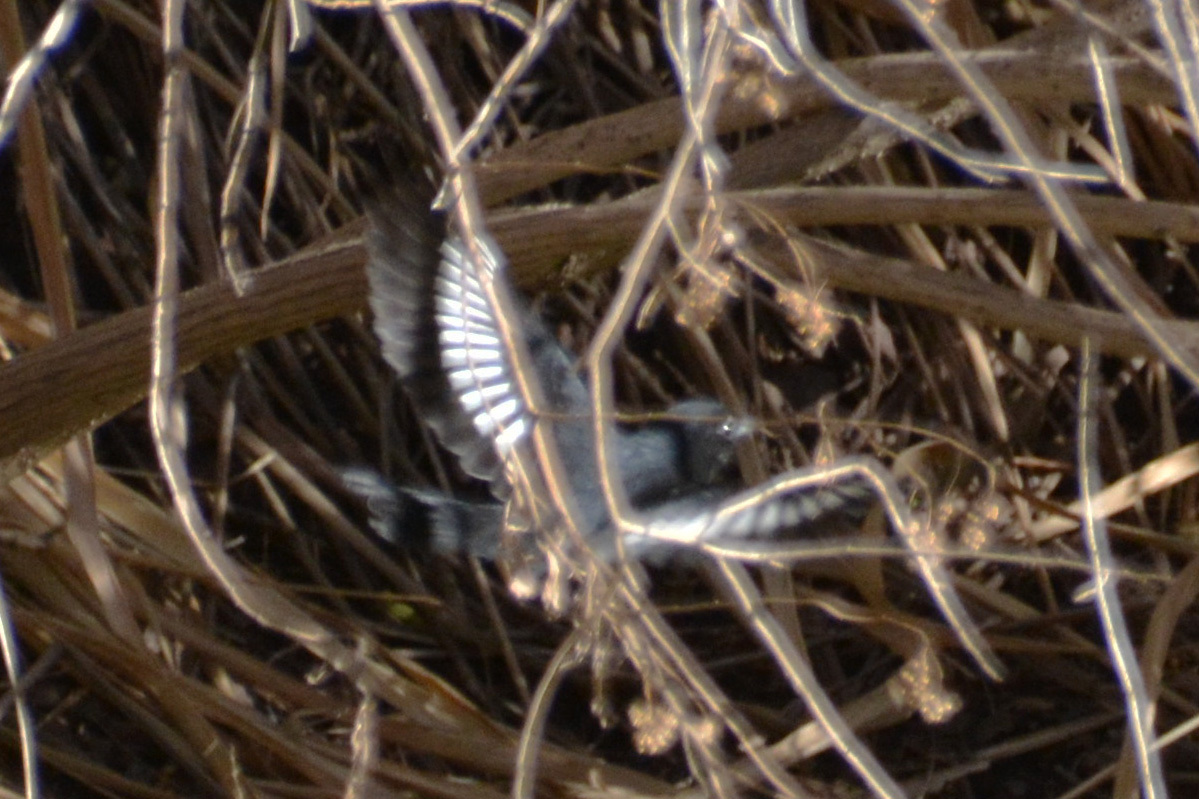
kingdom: Animalia
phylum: Chordata
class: Aves
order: Passeriformes
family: Tyrannidae
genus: Knipolegus
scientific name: Knipolegus aterrimus
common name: White-winged black tyrant
